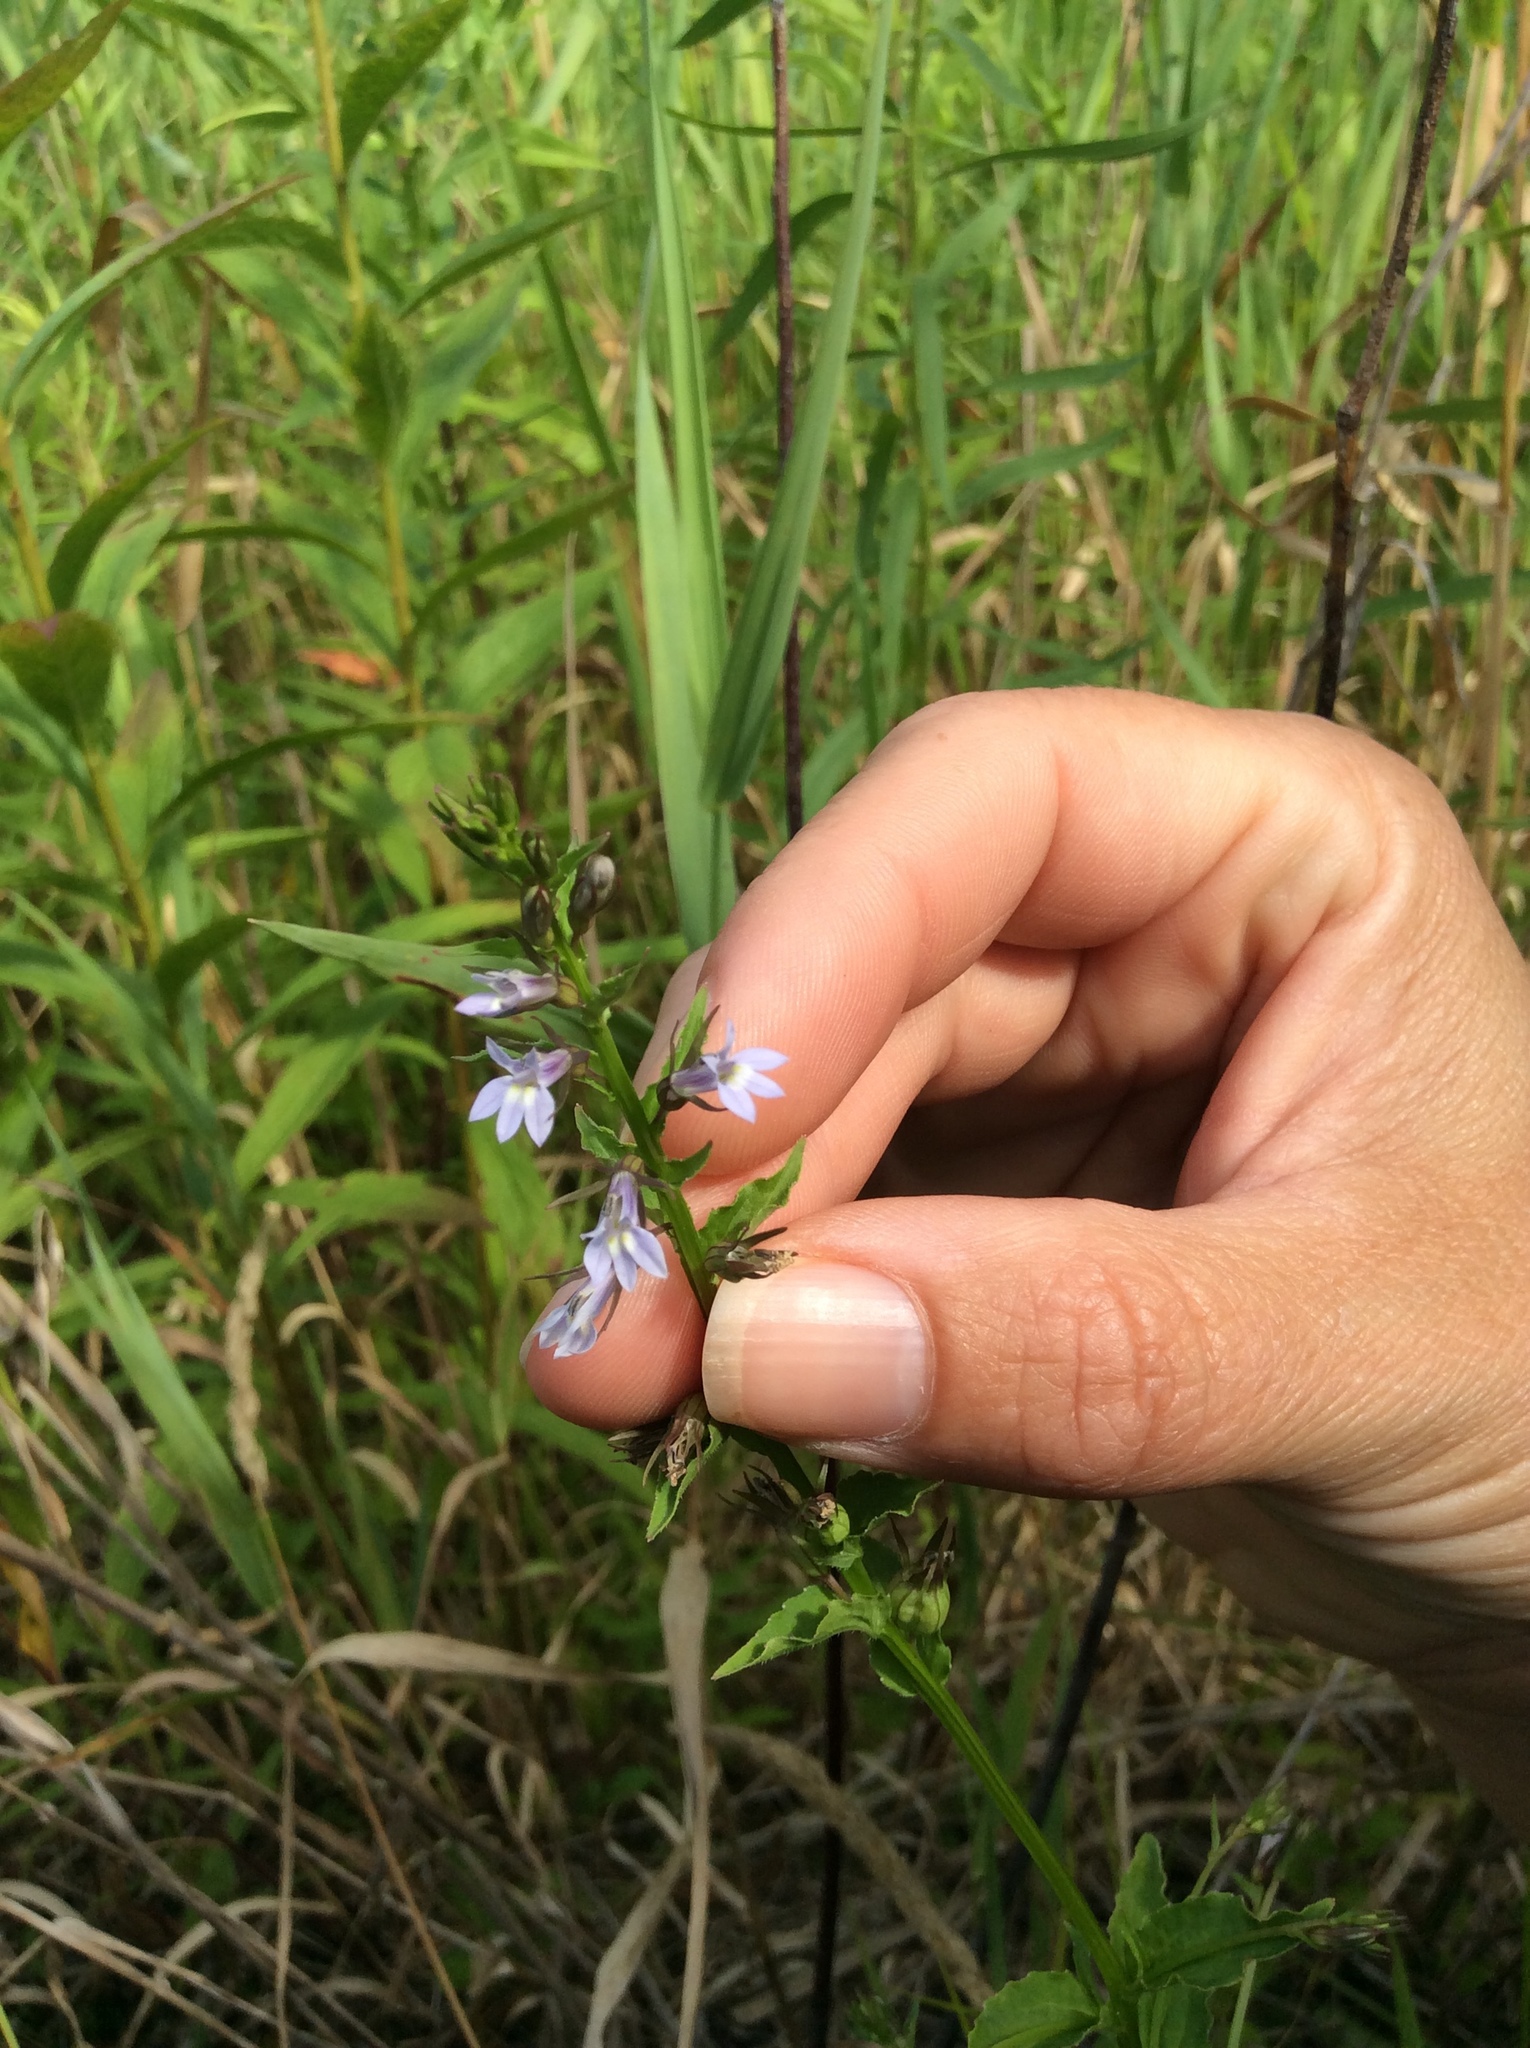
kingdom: Plantae
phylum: Tracheophyta
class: Magnoliopsida
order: Asterales
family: Campanulaceae
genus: Lobelia
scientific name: Lobelia inflata
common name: Indian tobacco
